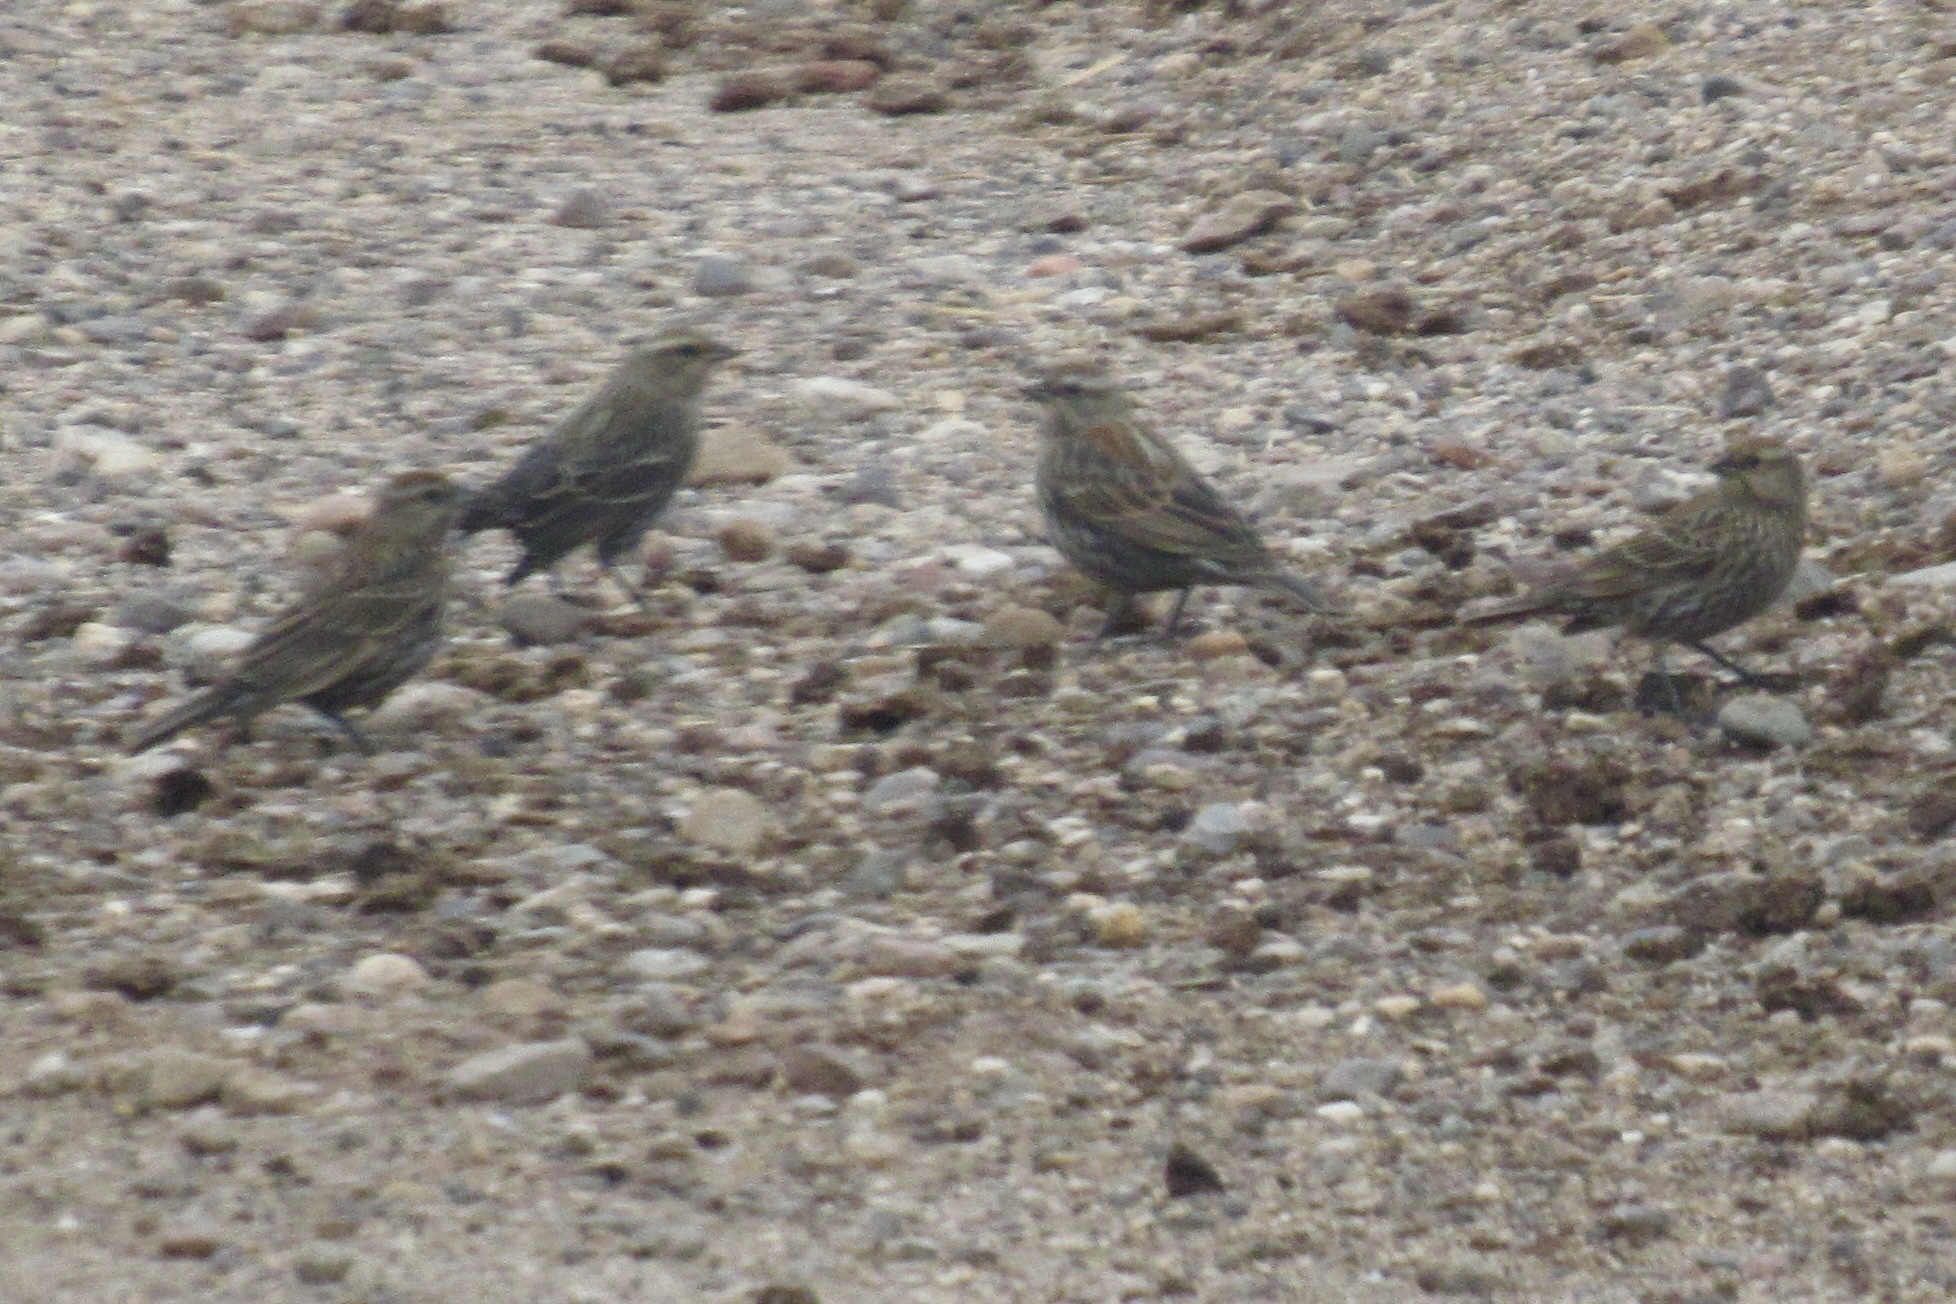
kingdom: Animalia
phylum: Chordata
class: Aves
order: Passeriformes
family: Icteridae
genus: Agelaius
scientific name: Agelaius phoeniceus
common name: Red-winged blackbird
